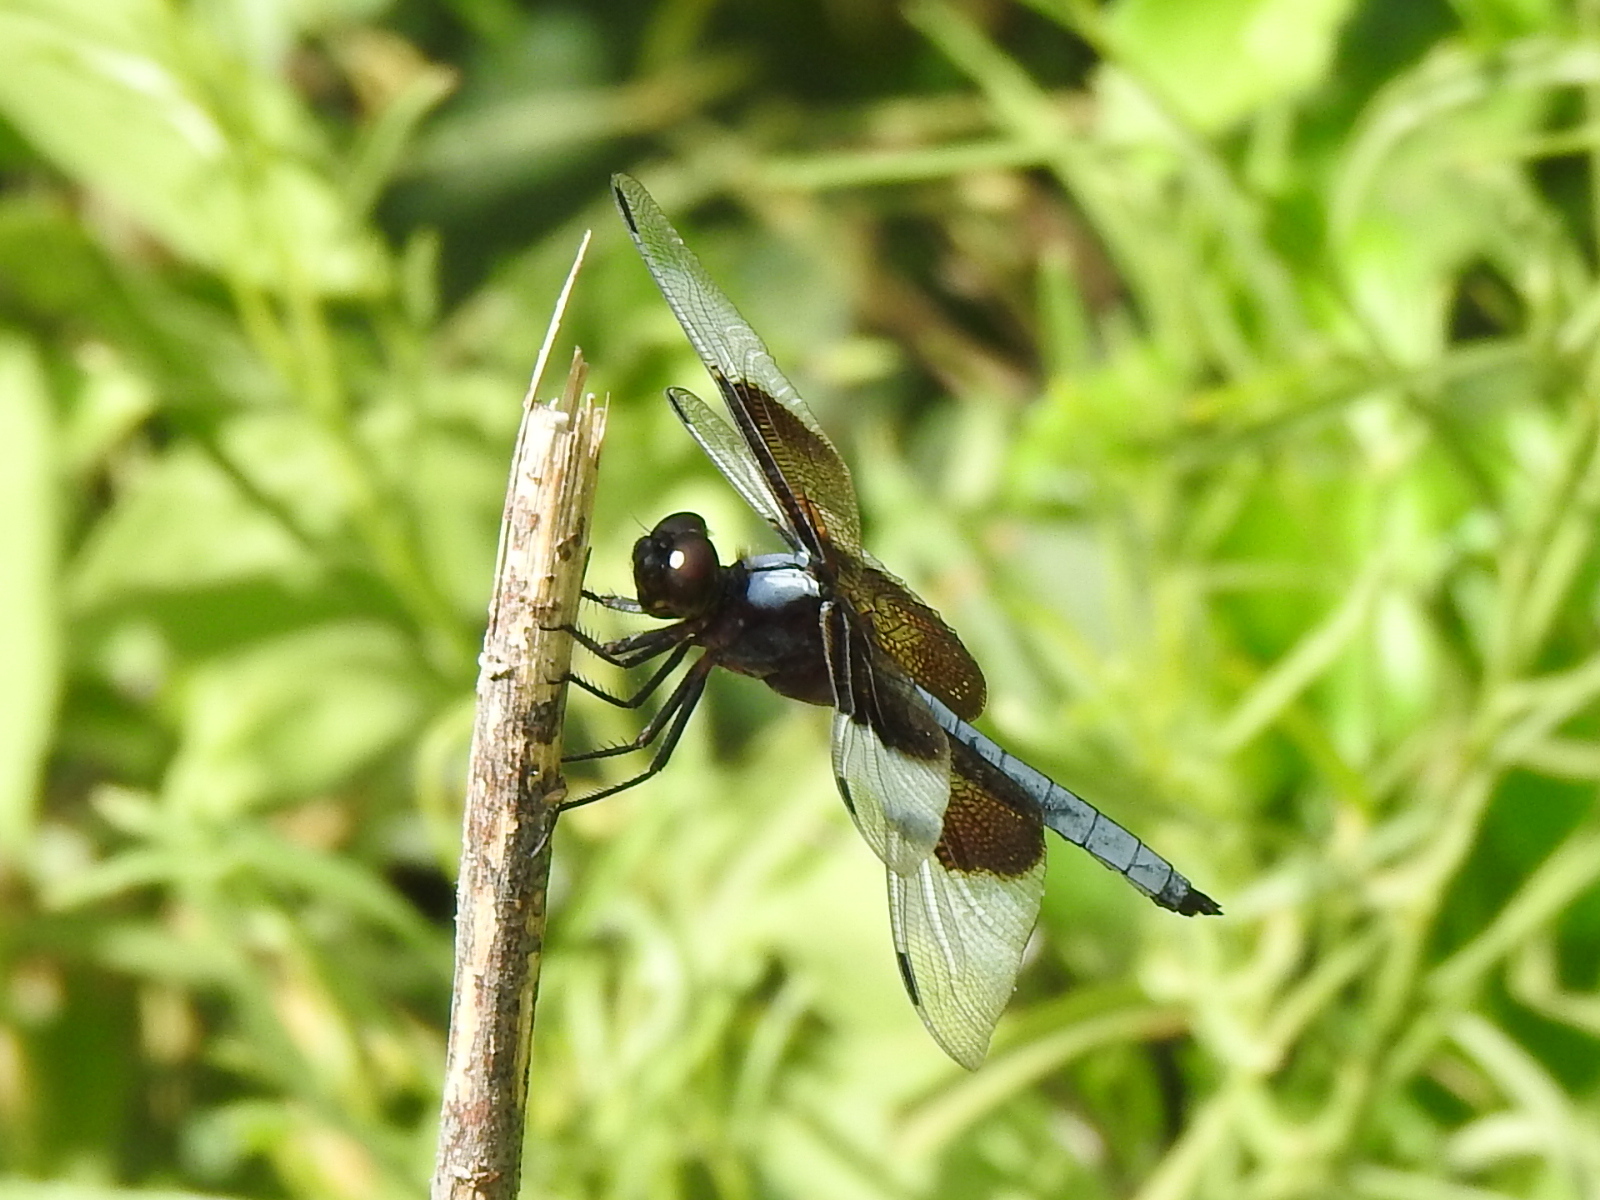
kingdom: Animalia
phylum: Arthropoda
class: Insecta
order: Odonata
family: Libellulidae
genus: Libellula
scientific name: Libellula luctuosa
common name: Widow skimmer
